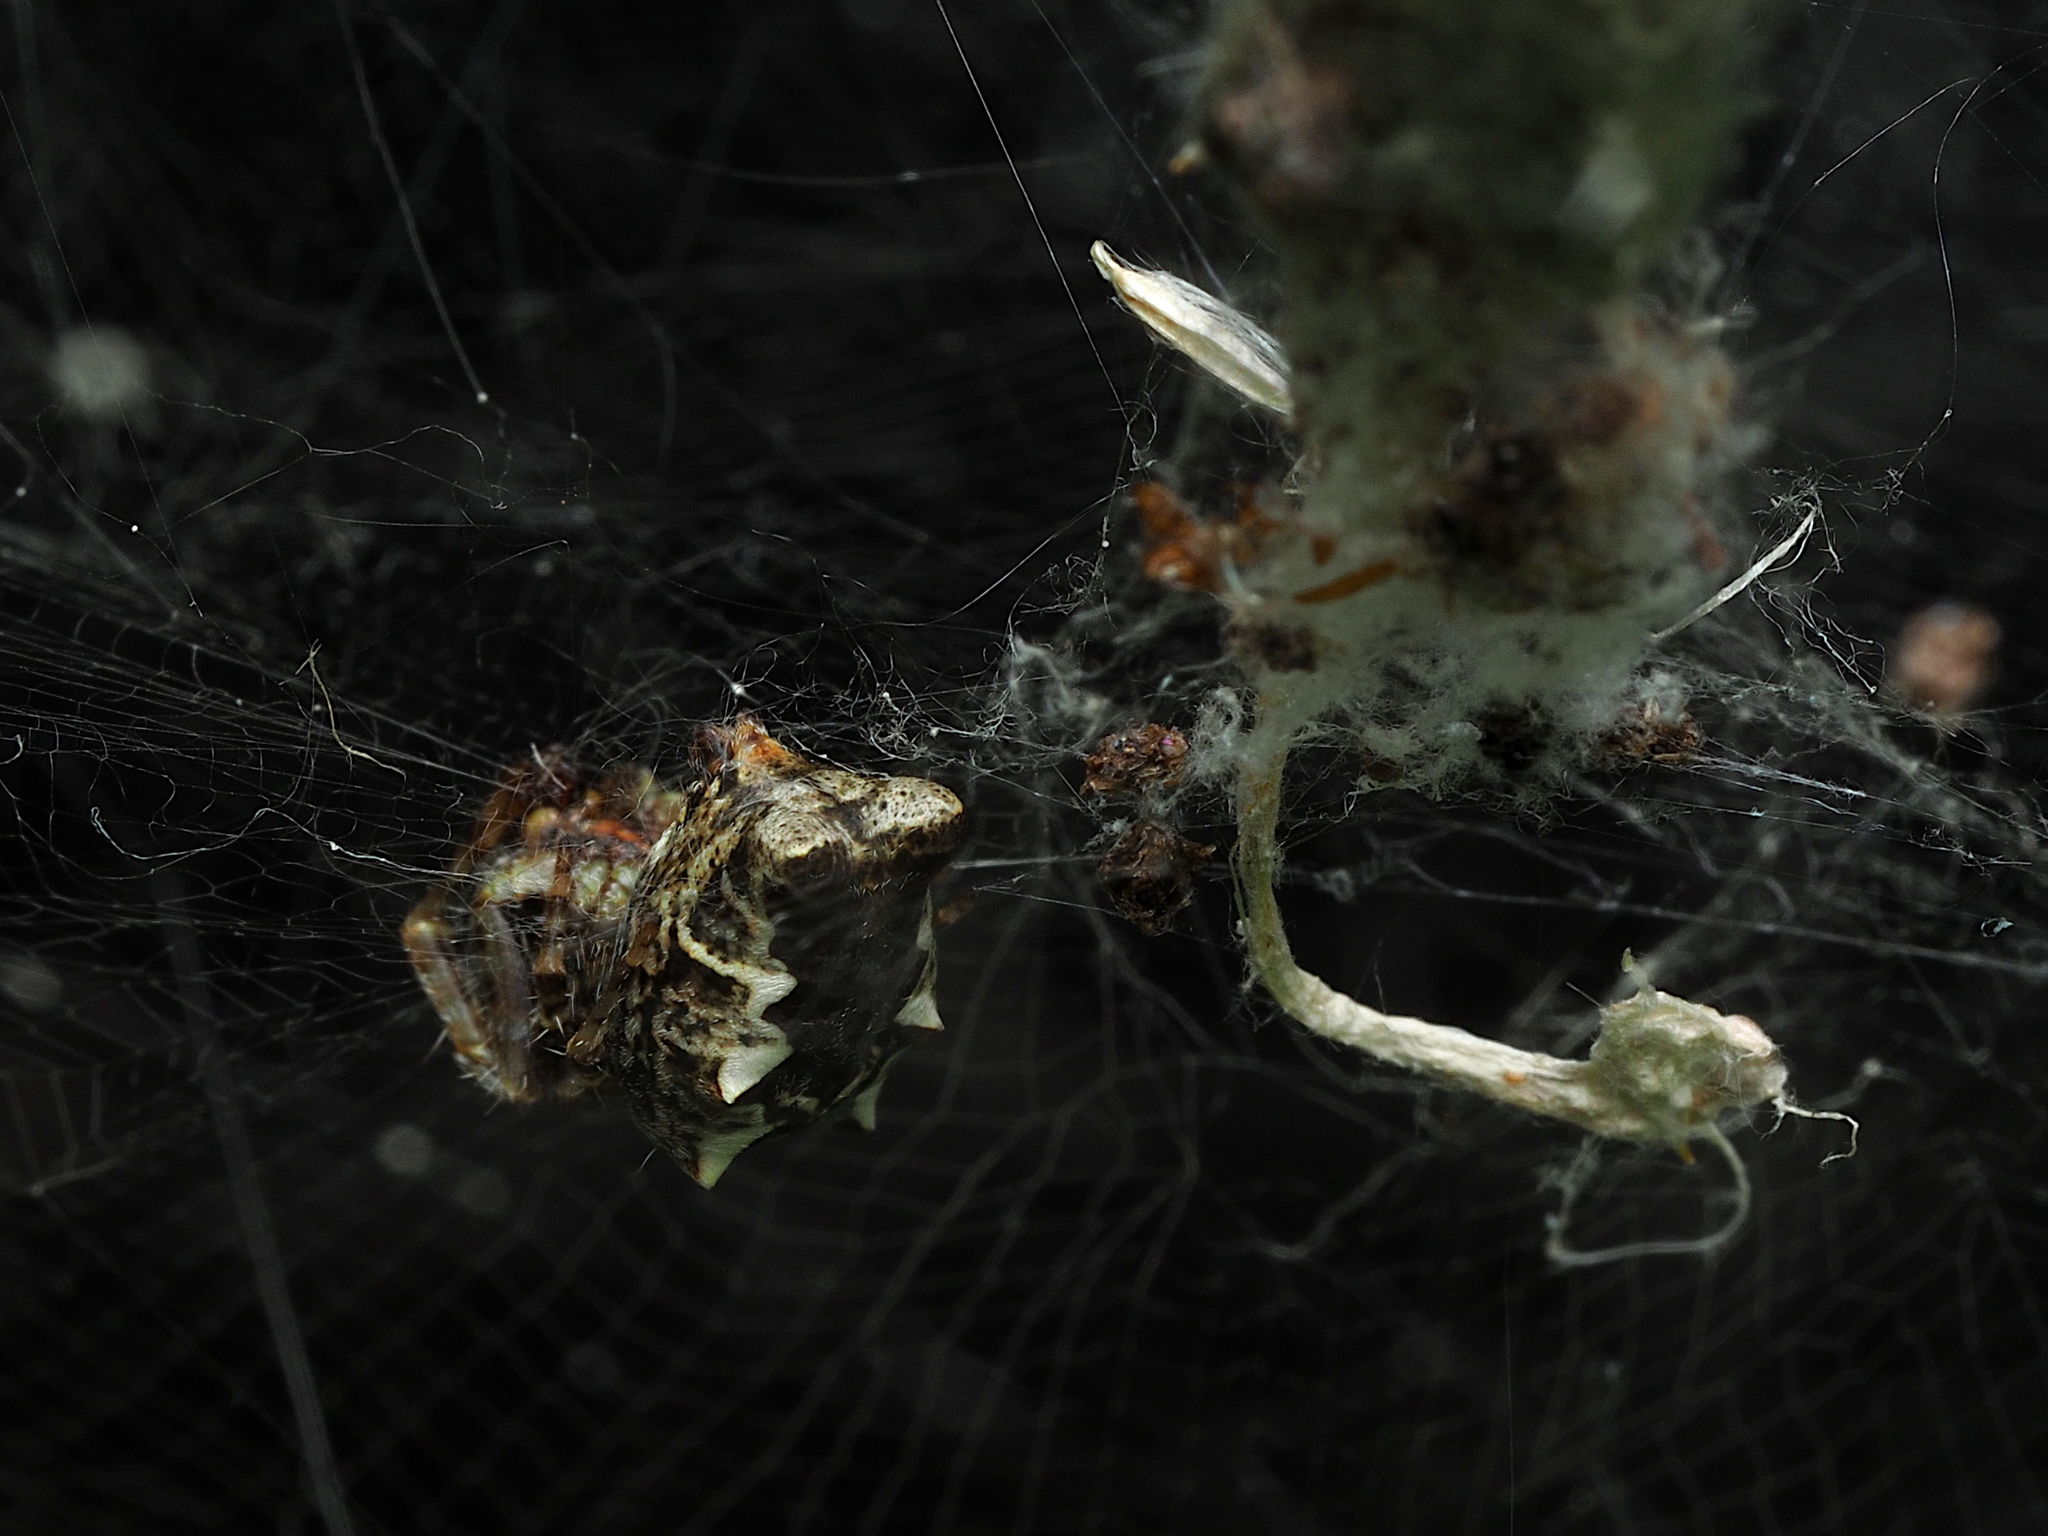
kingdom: Animalia
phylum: Arthropoda
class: Arachnida
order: Araneae
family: Araneidae
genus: Cyrtophora
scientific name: Cyrtophora citricola
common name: Orb weavers
